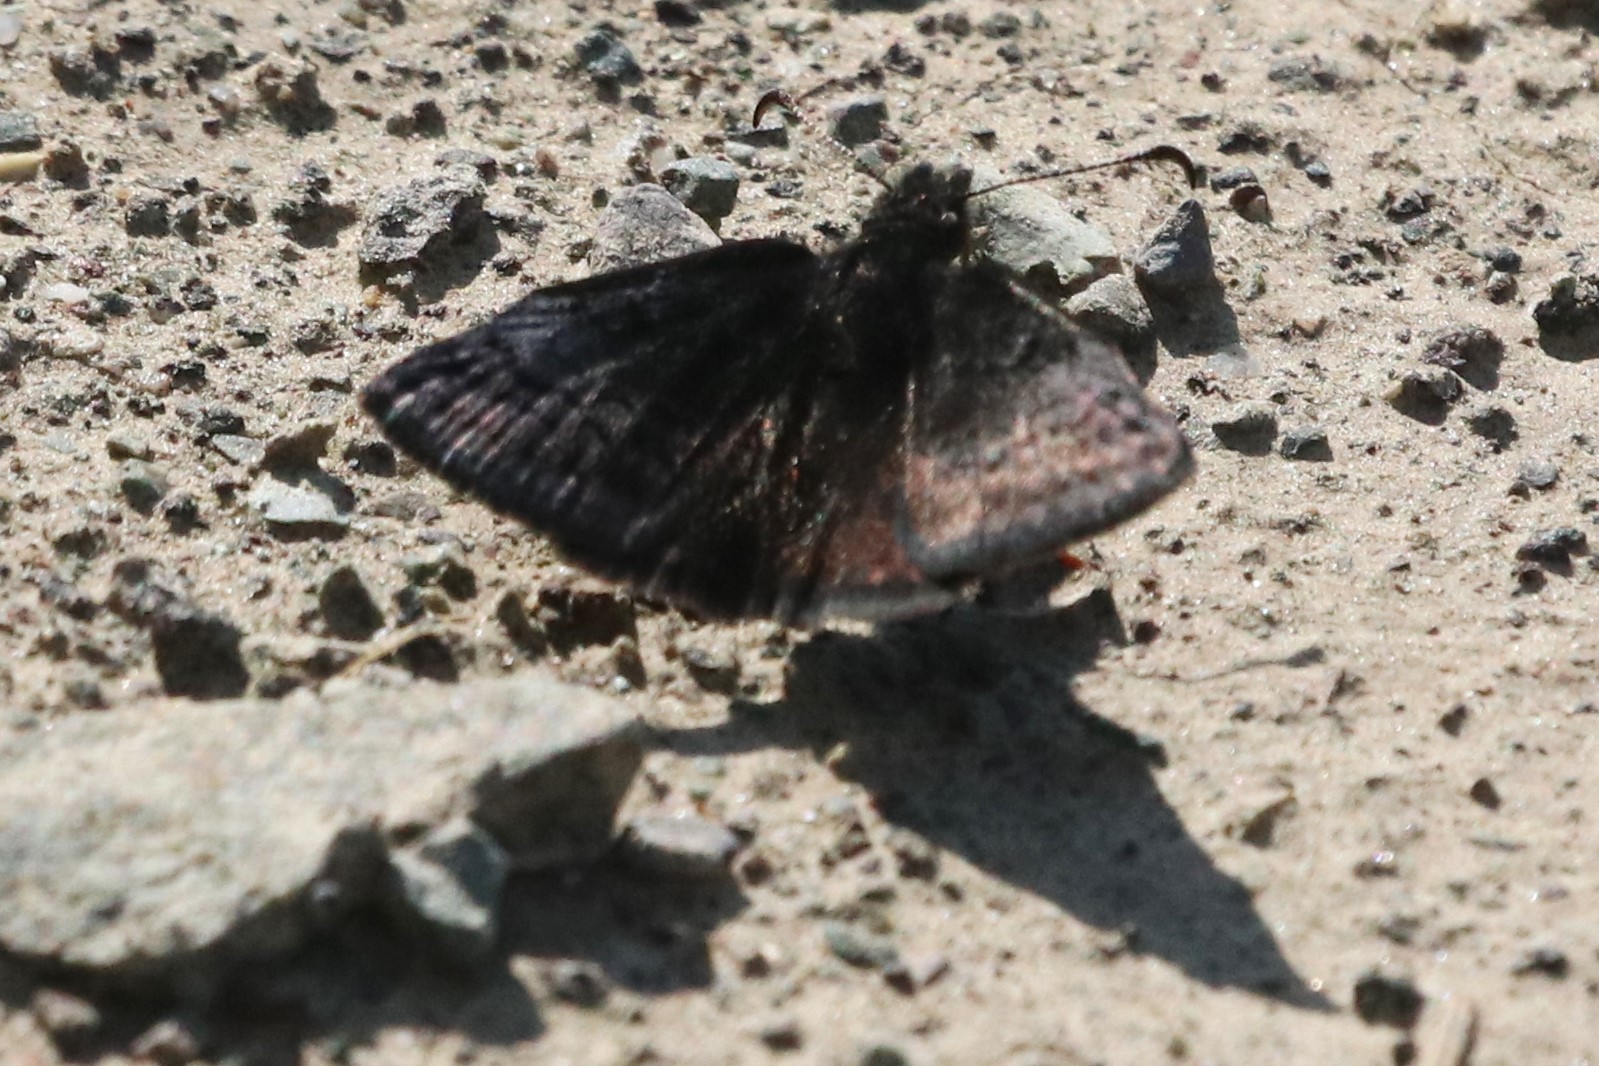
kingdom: Animalia
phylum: Arthropoda
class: Insecta
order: Lepidoptera
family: Hesperiidae
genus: Erynnis
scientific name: Erynnis icelus
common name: Dreamy duskywing
